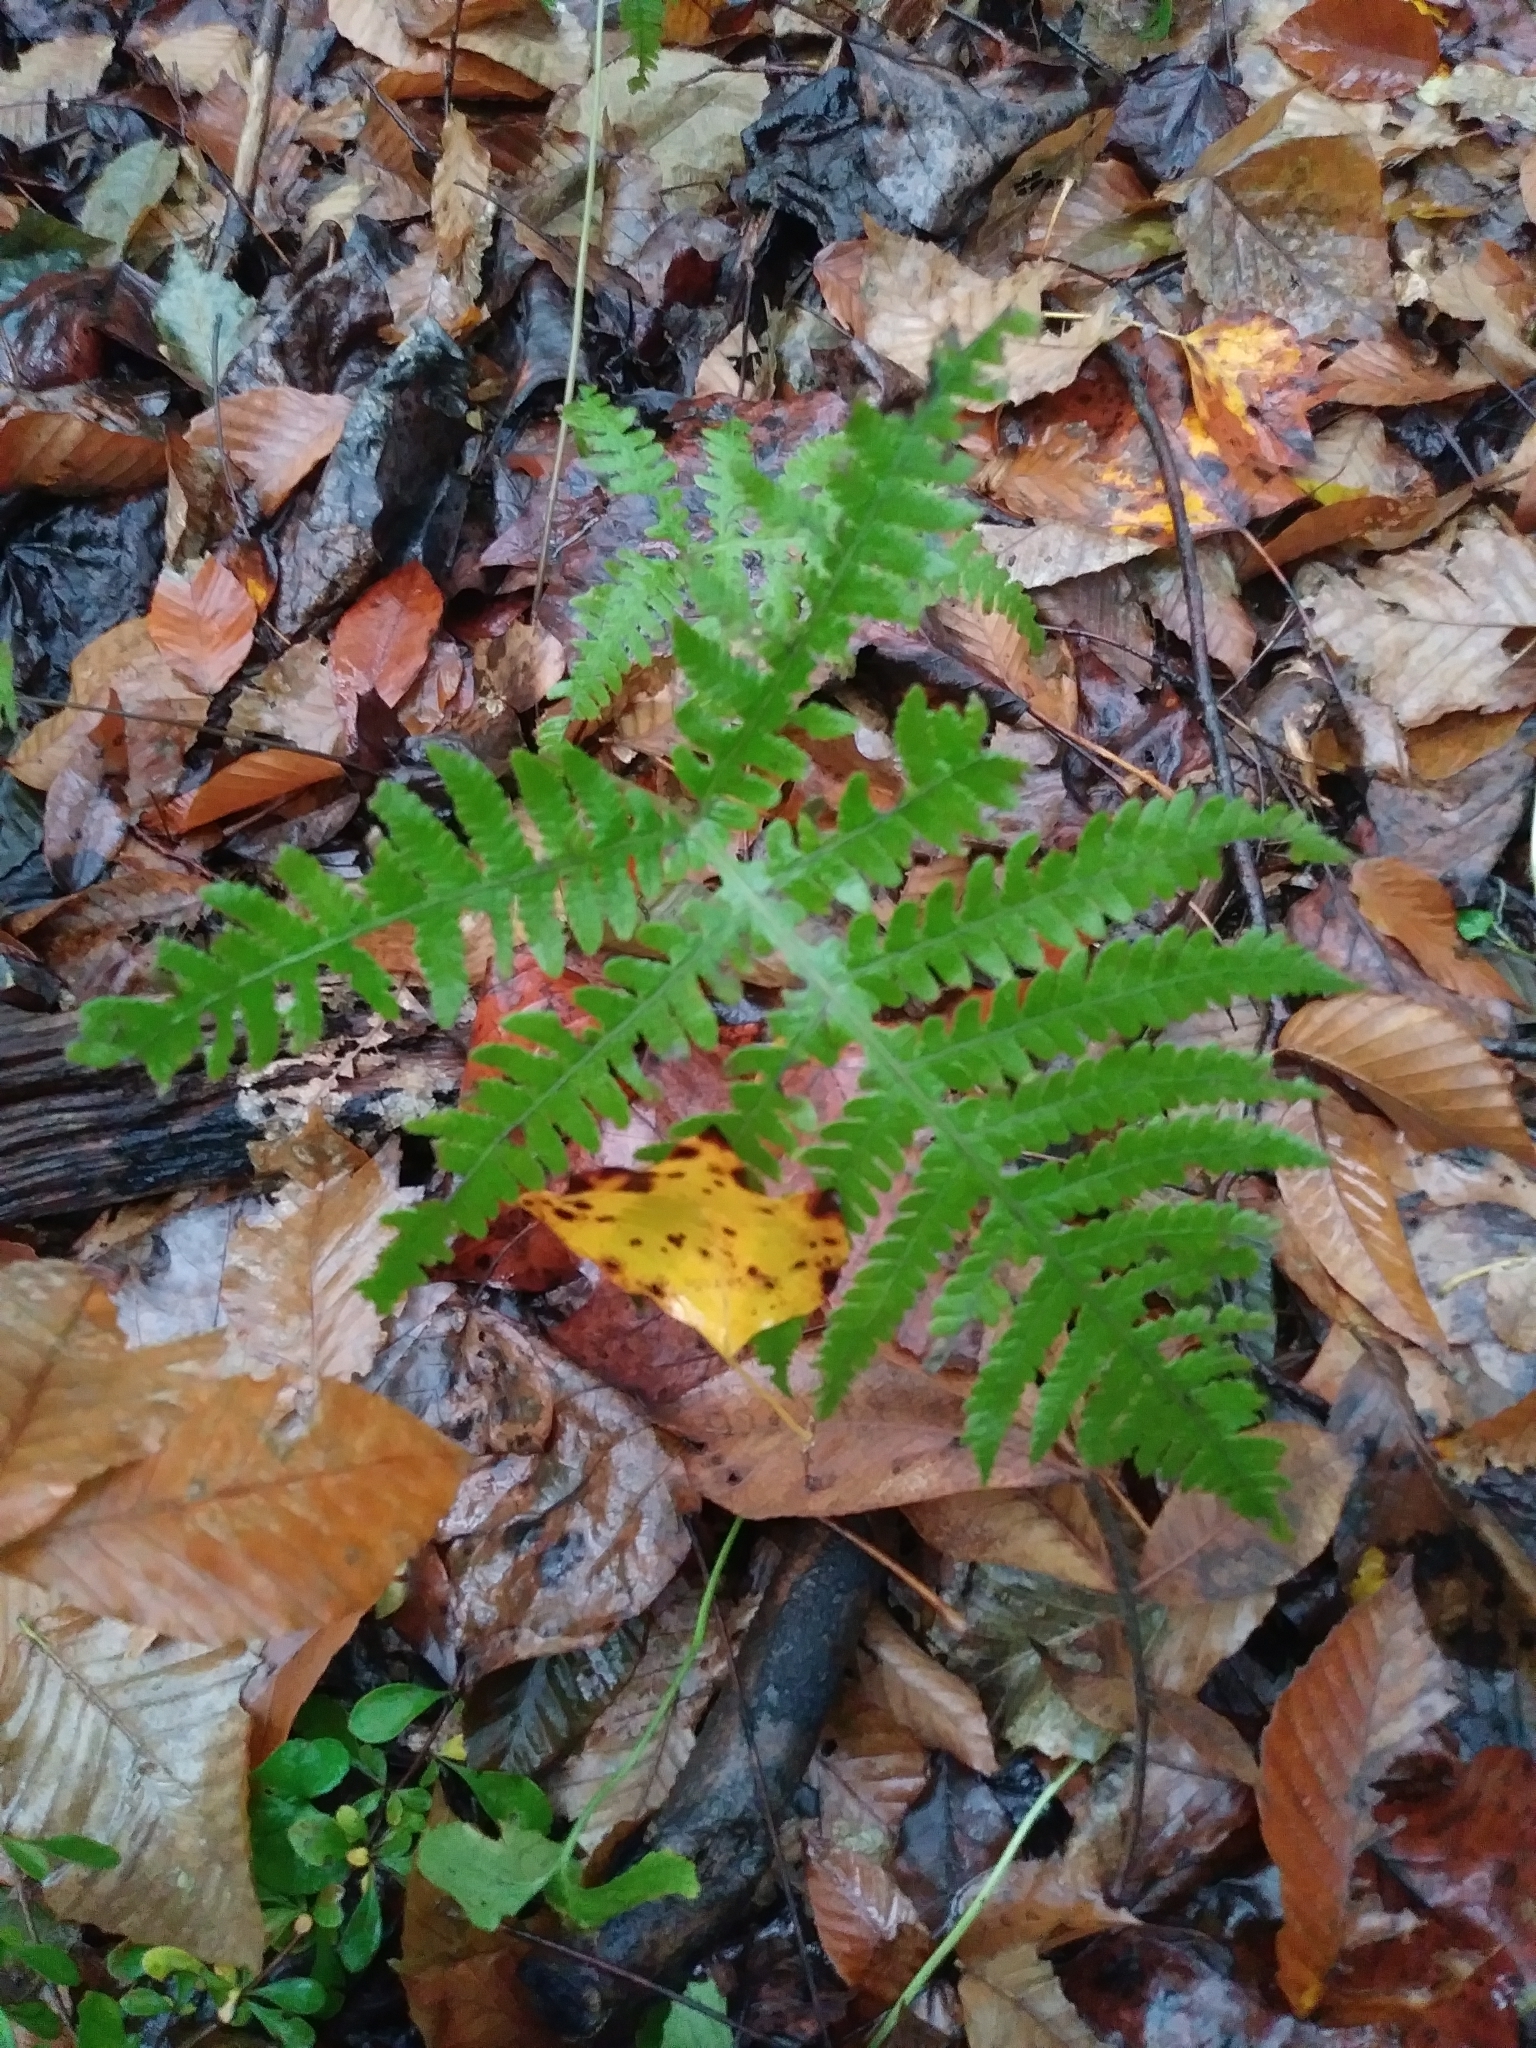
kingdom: Plantae
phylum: Tracheophyta
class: Polypodiopsida
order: Polypodiales
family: Thelypteridaceae
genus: Phegopteris
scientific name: Phegopteris hexagonoptera
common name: Broad beech fern
